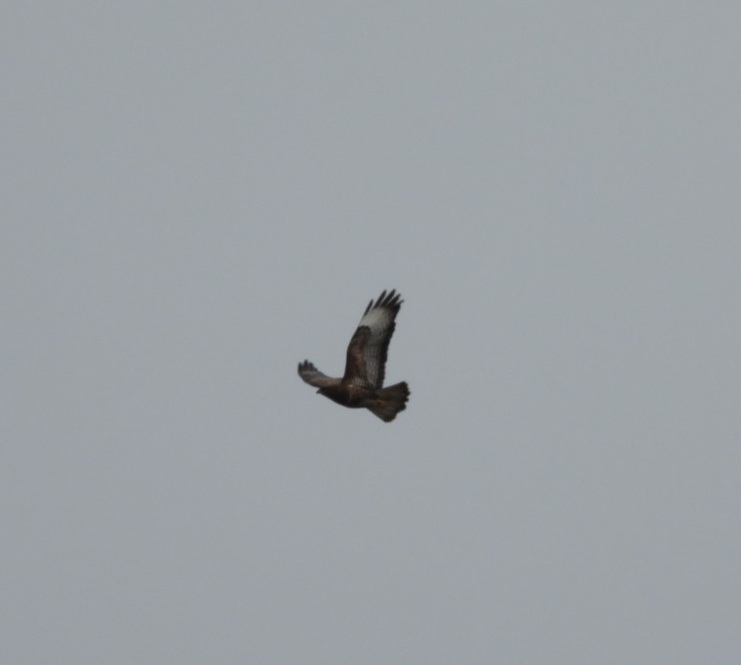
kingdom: Animalia
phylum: Chordata
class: Aves
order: Accipitriformes
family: Accipitridae
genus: Buteo
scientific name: Buteo buteo
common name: Common buzzard
